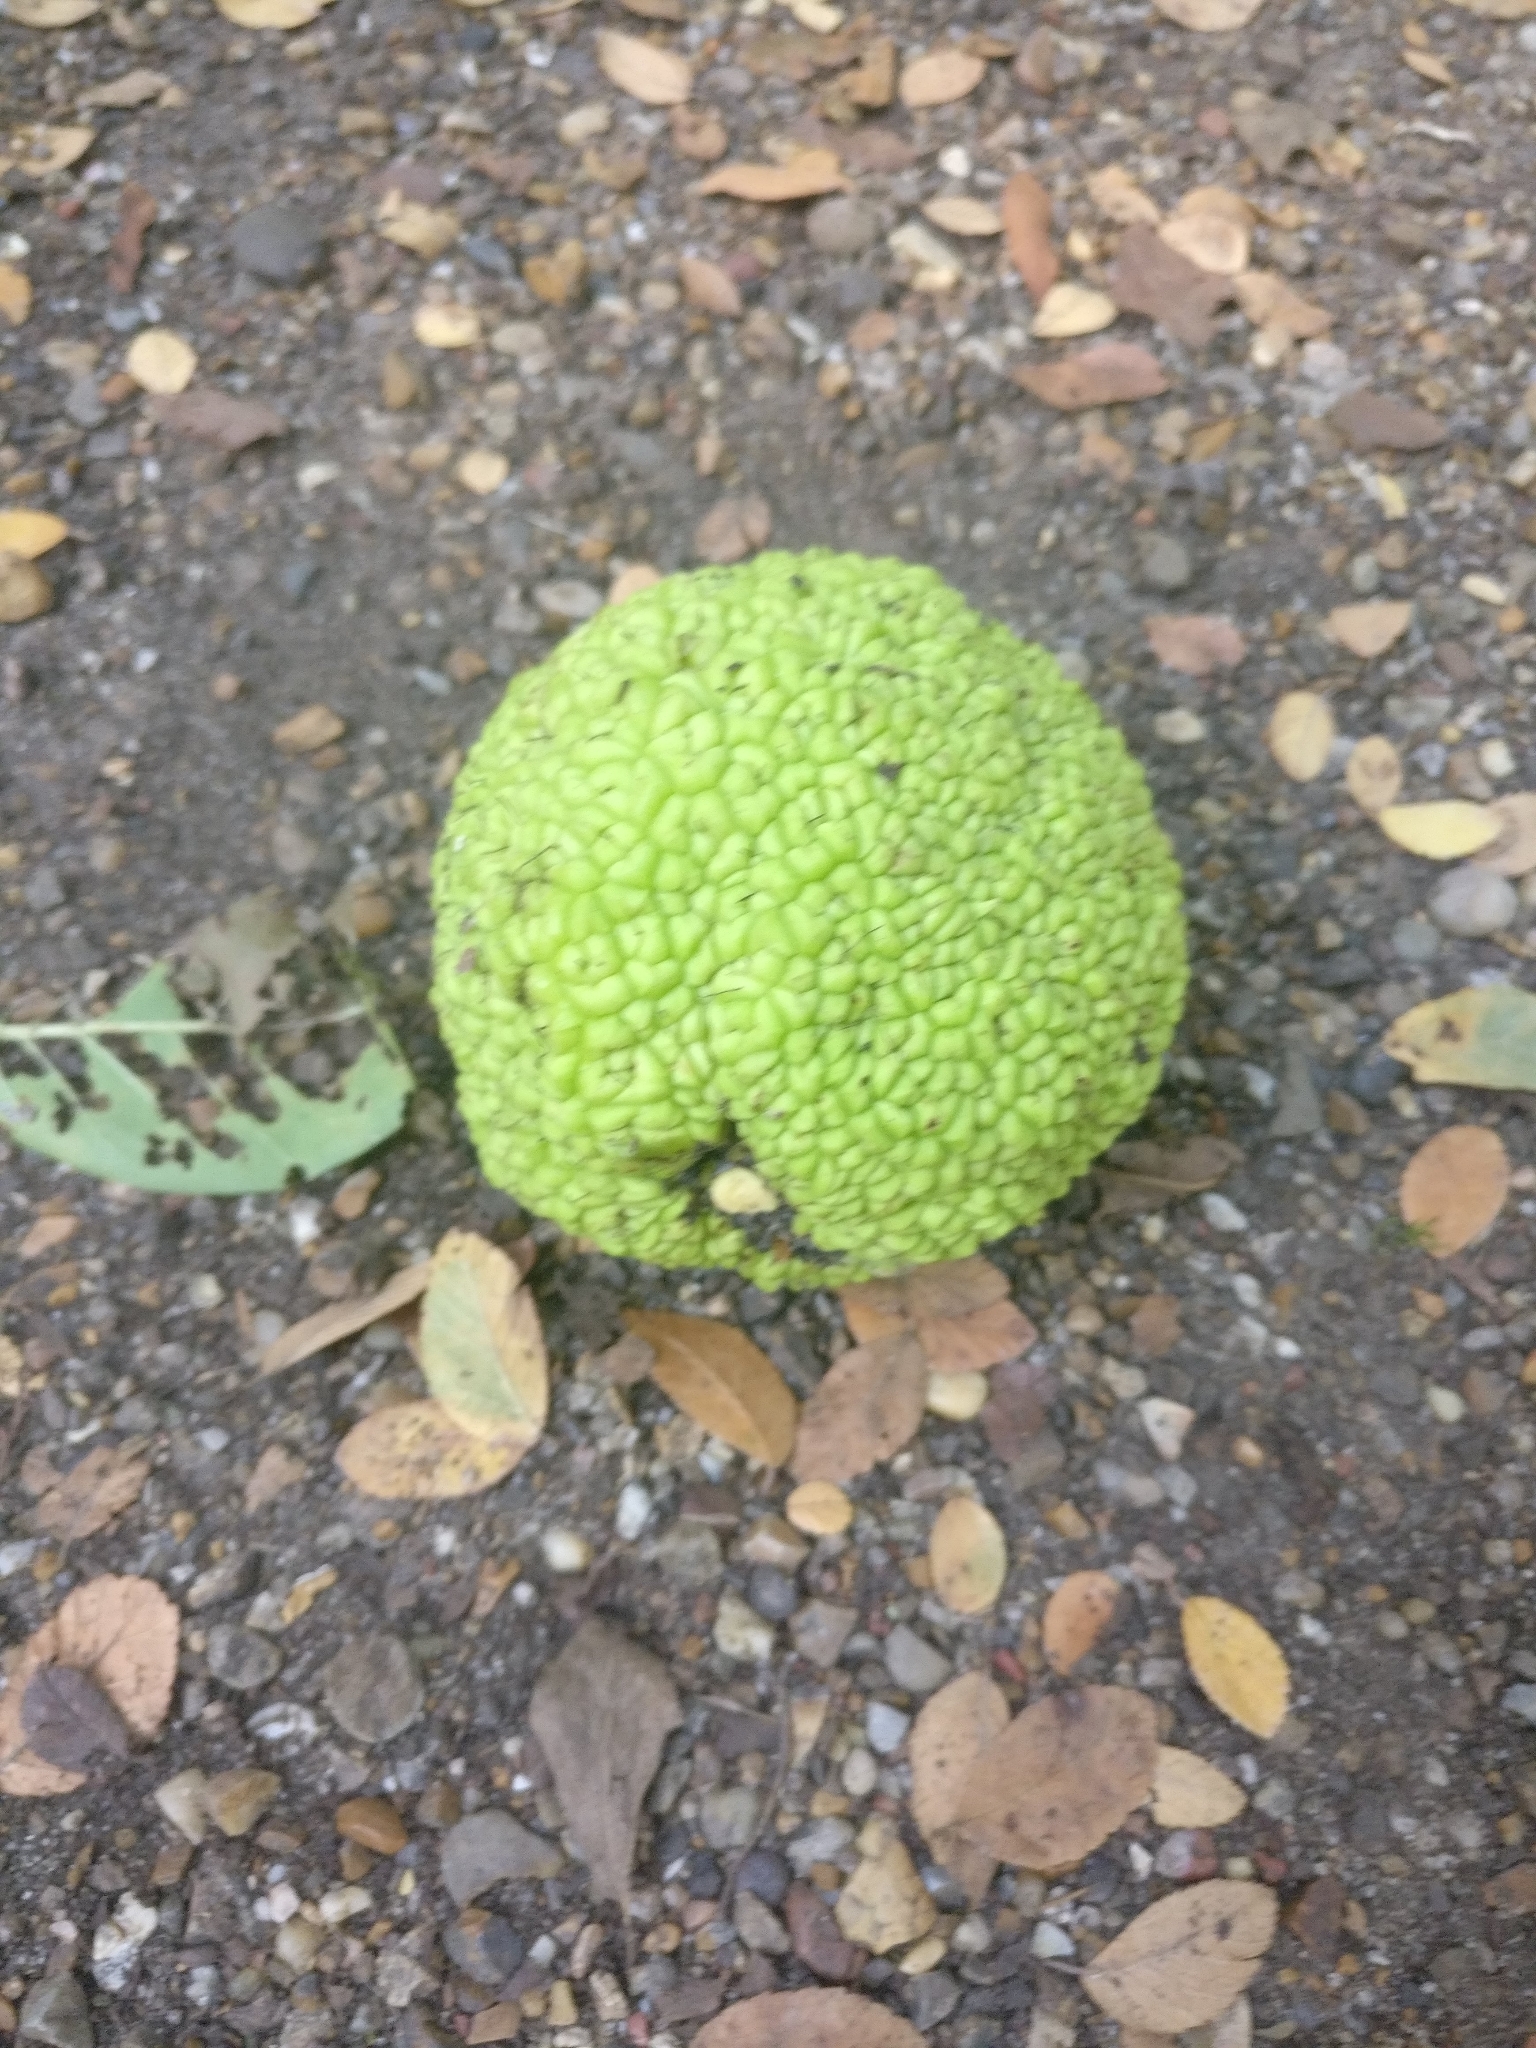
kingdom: Plantae
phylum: Tracheophyta
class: Magnoliopsida
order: Rosales
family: Moraceae
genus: Maclura
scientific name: Maclura pomifera
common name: Osage-orange
